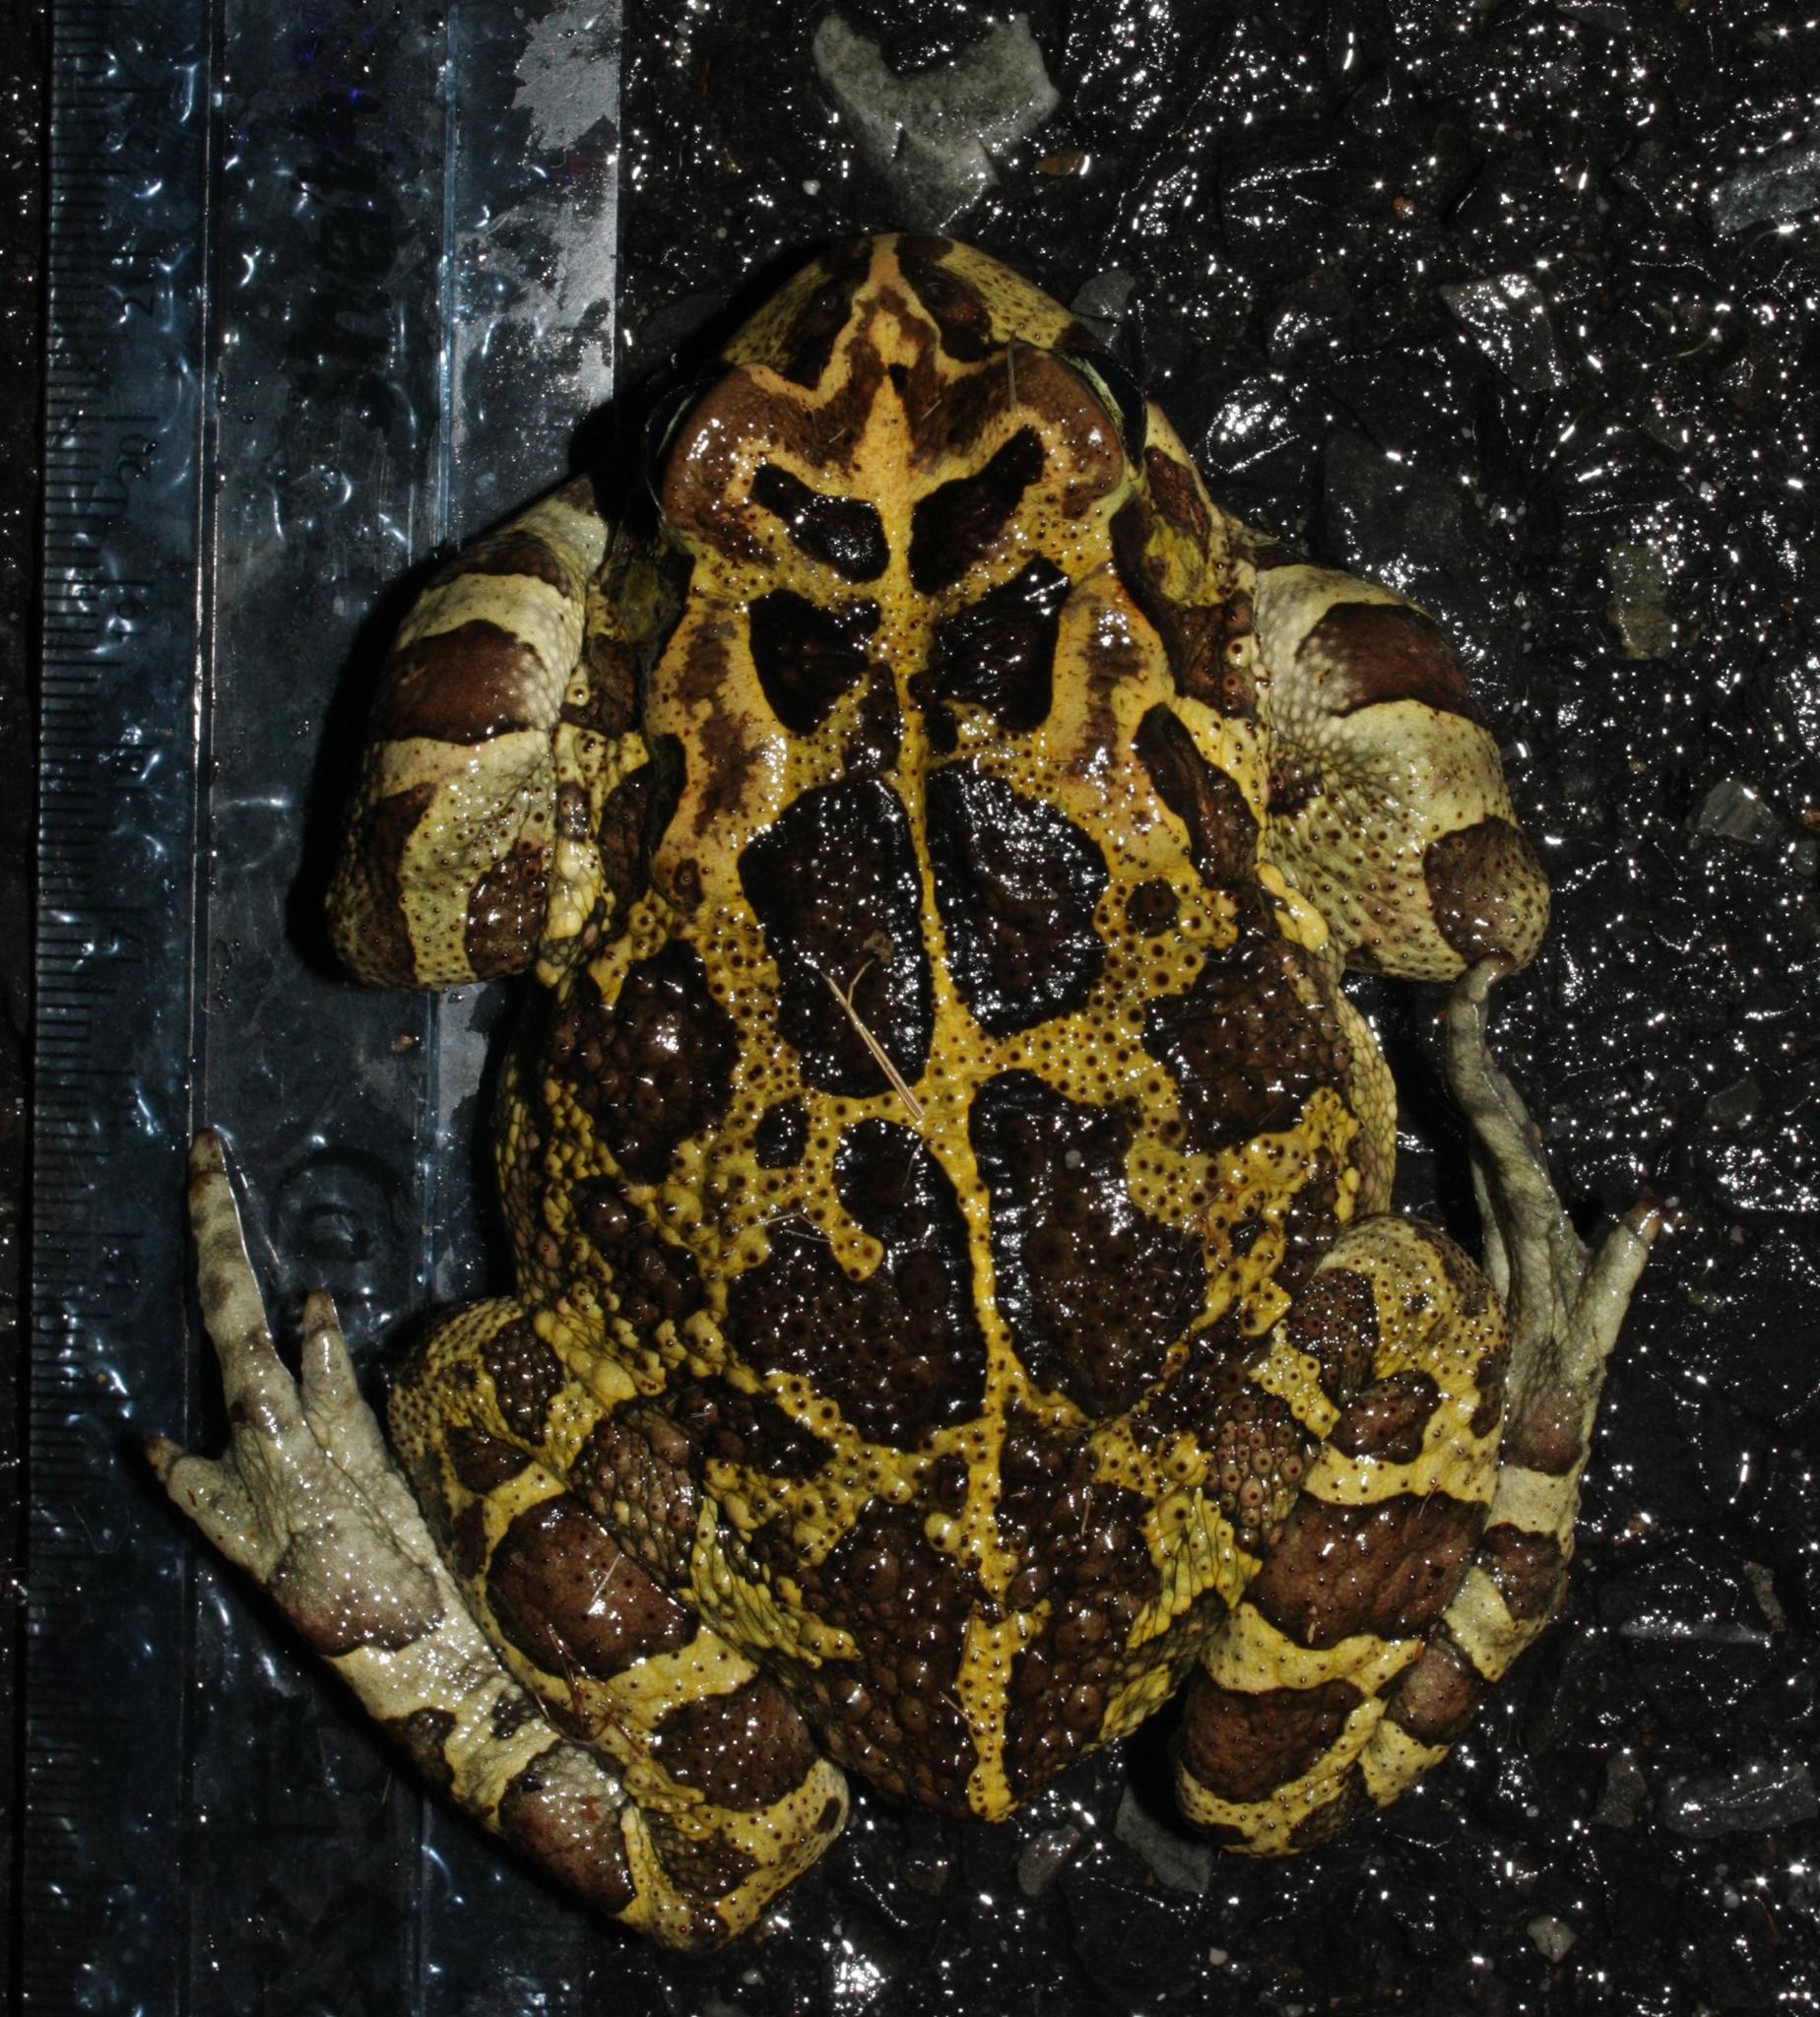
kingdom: Animalia
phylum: Chordata
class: Amphibia
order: Anura
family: Bufonidae
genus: Sclerophrys
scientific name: Sclerophrys pantherina
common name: Panther toad
